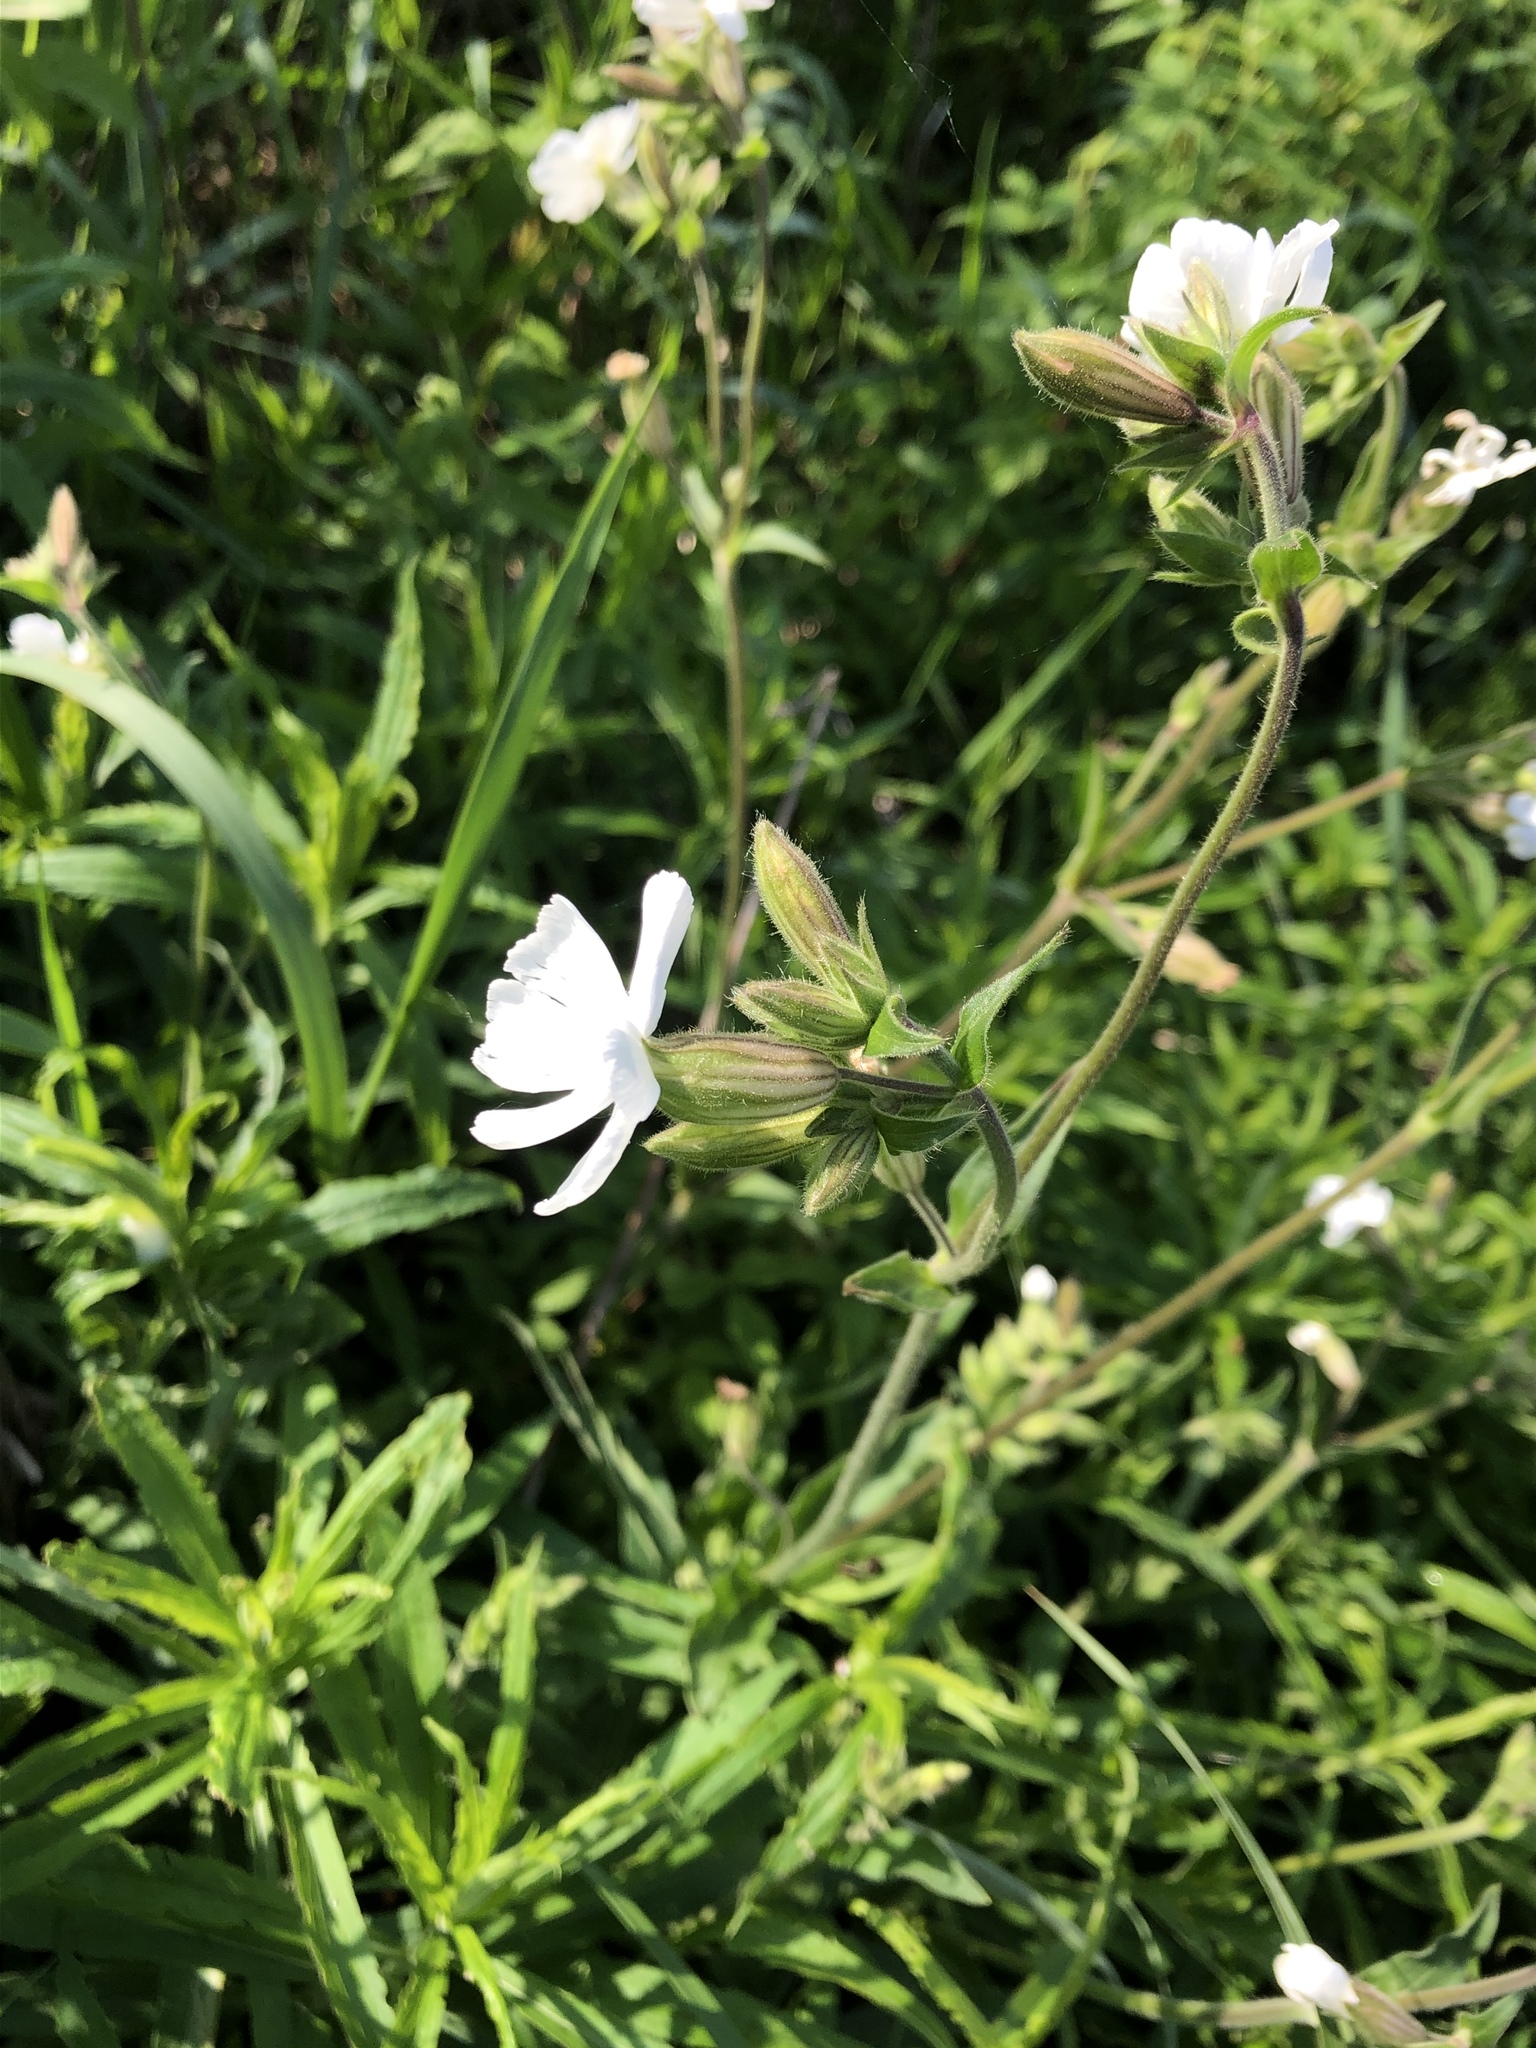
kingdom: Plantae
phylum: Tracheophyta
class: Magnoliopsida
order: Caryophyllales
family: Caryophyllaceae
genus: Silene
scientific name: Silene latifolia
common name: White campion
